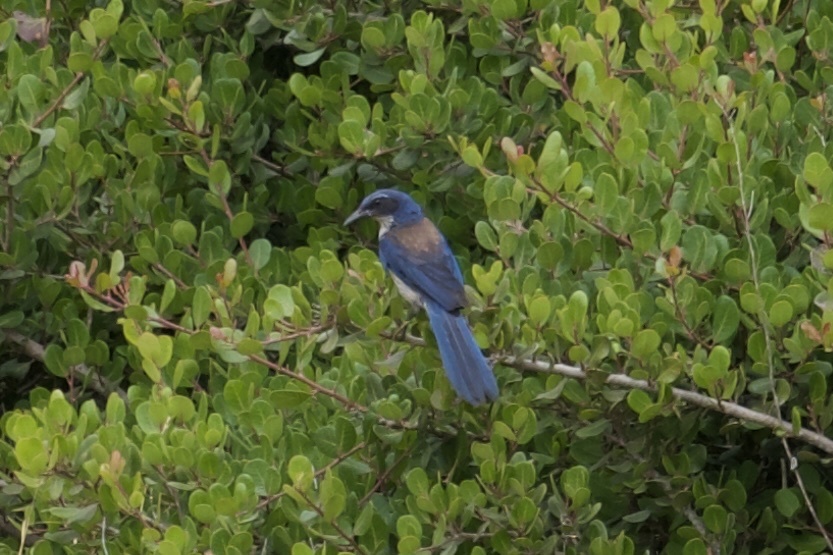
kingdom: Animalia
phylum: Chordata
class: Aves
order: Passeriformes
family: Corvidae
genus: Aphelocoma
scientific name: Aphelocoma insularis
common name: Island scrub-jay
